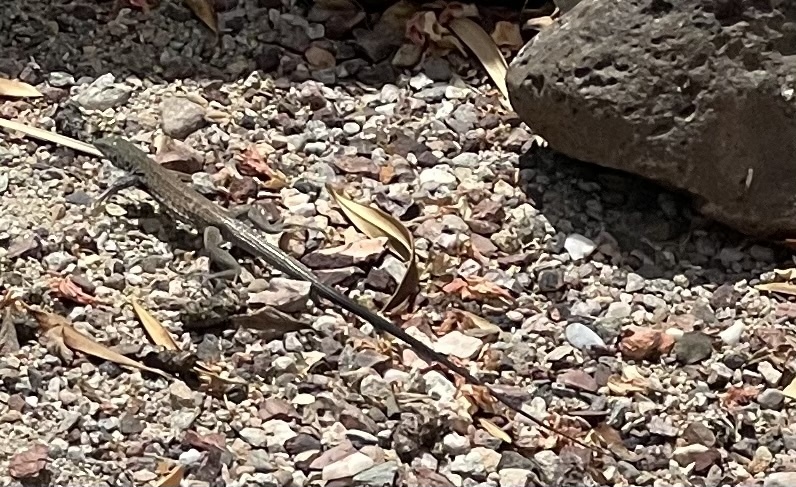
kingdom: Animalia
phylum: Chordata
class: Squamata
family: Teiidae
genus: Aspidoscelis
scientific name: Aspidoscelis tigris
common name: Tiger whiptail
